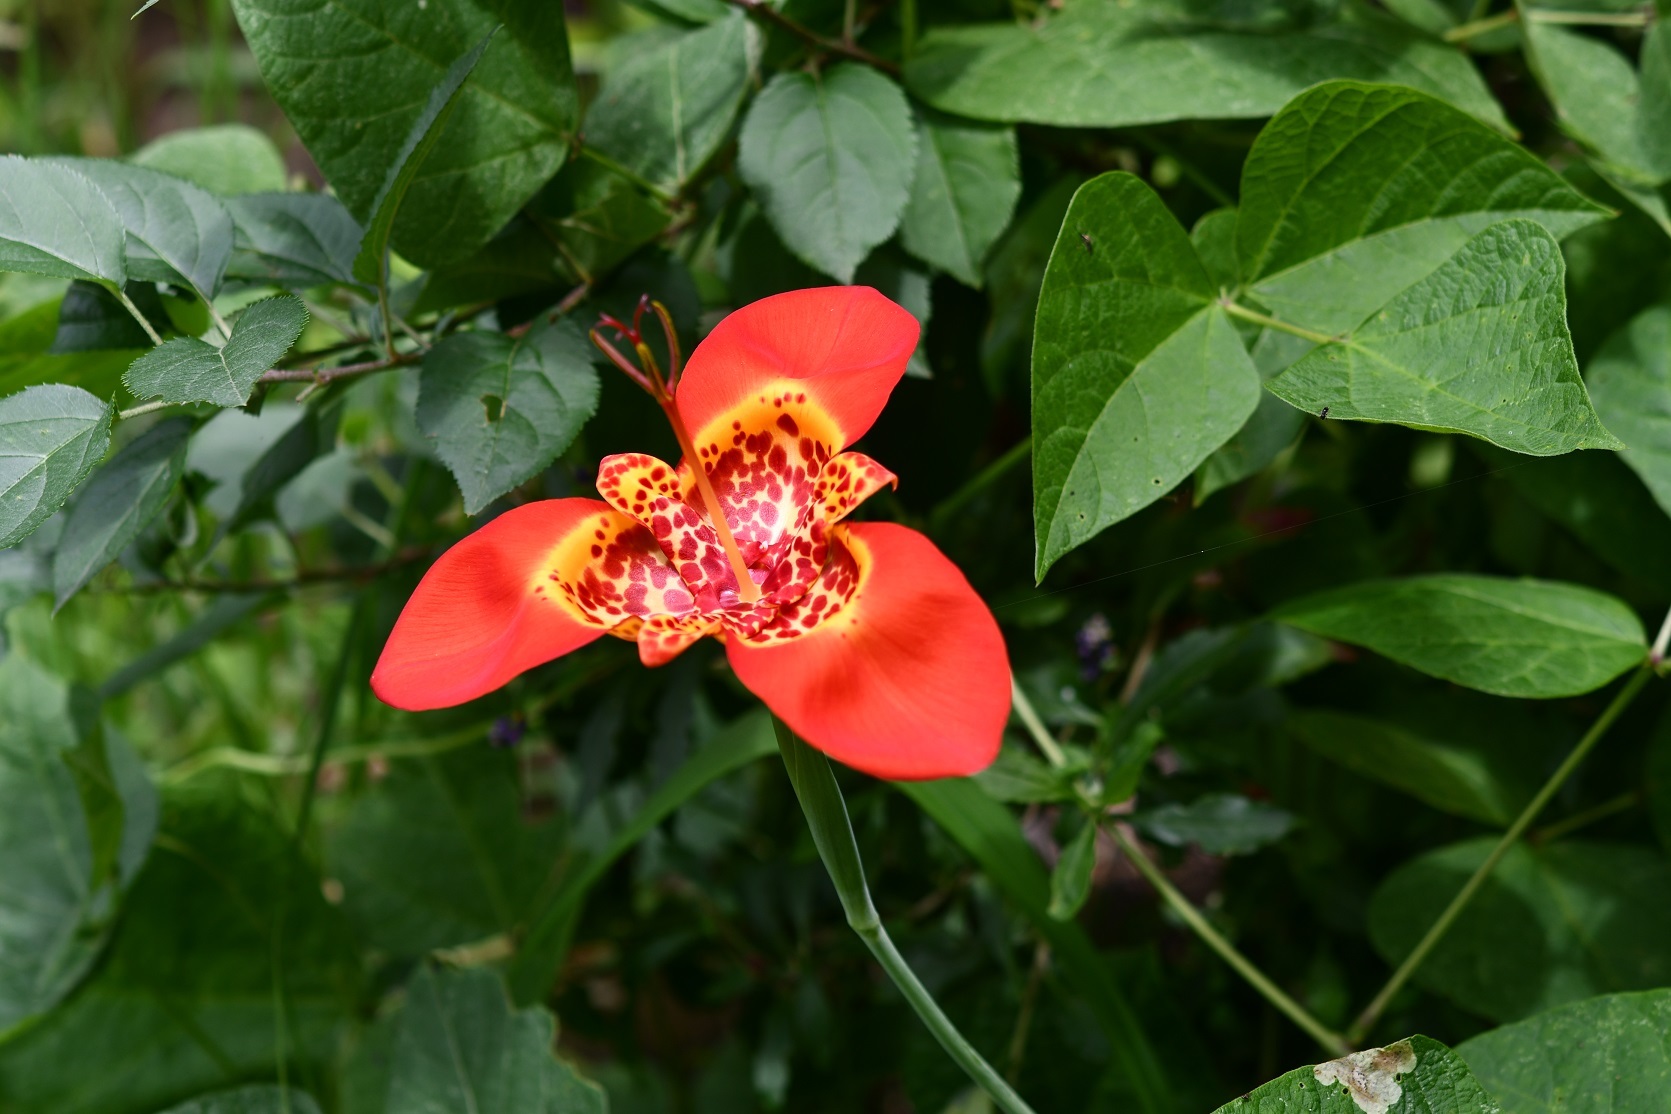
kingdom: Plantae
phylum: Tracheophyta
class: Liliopsida
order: Asparagales
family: Iridaceae
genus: Tigridia
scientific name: Tigridia pavonia
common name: Peacock-flower
